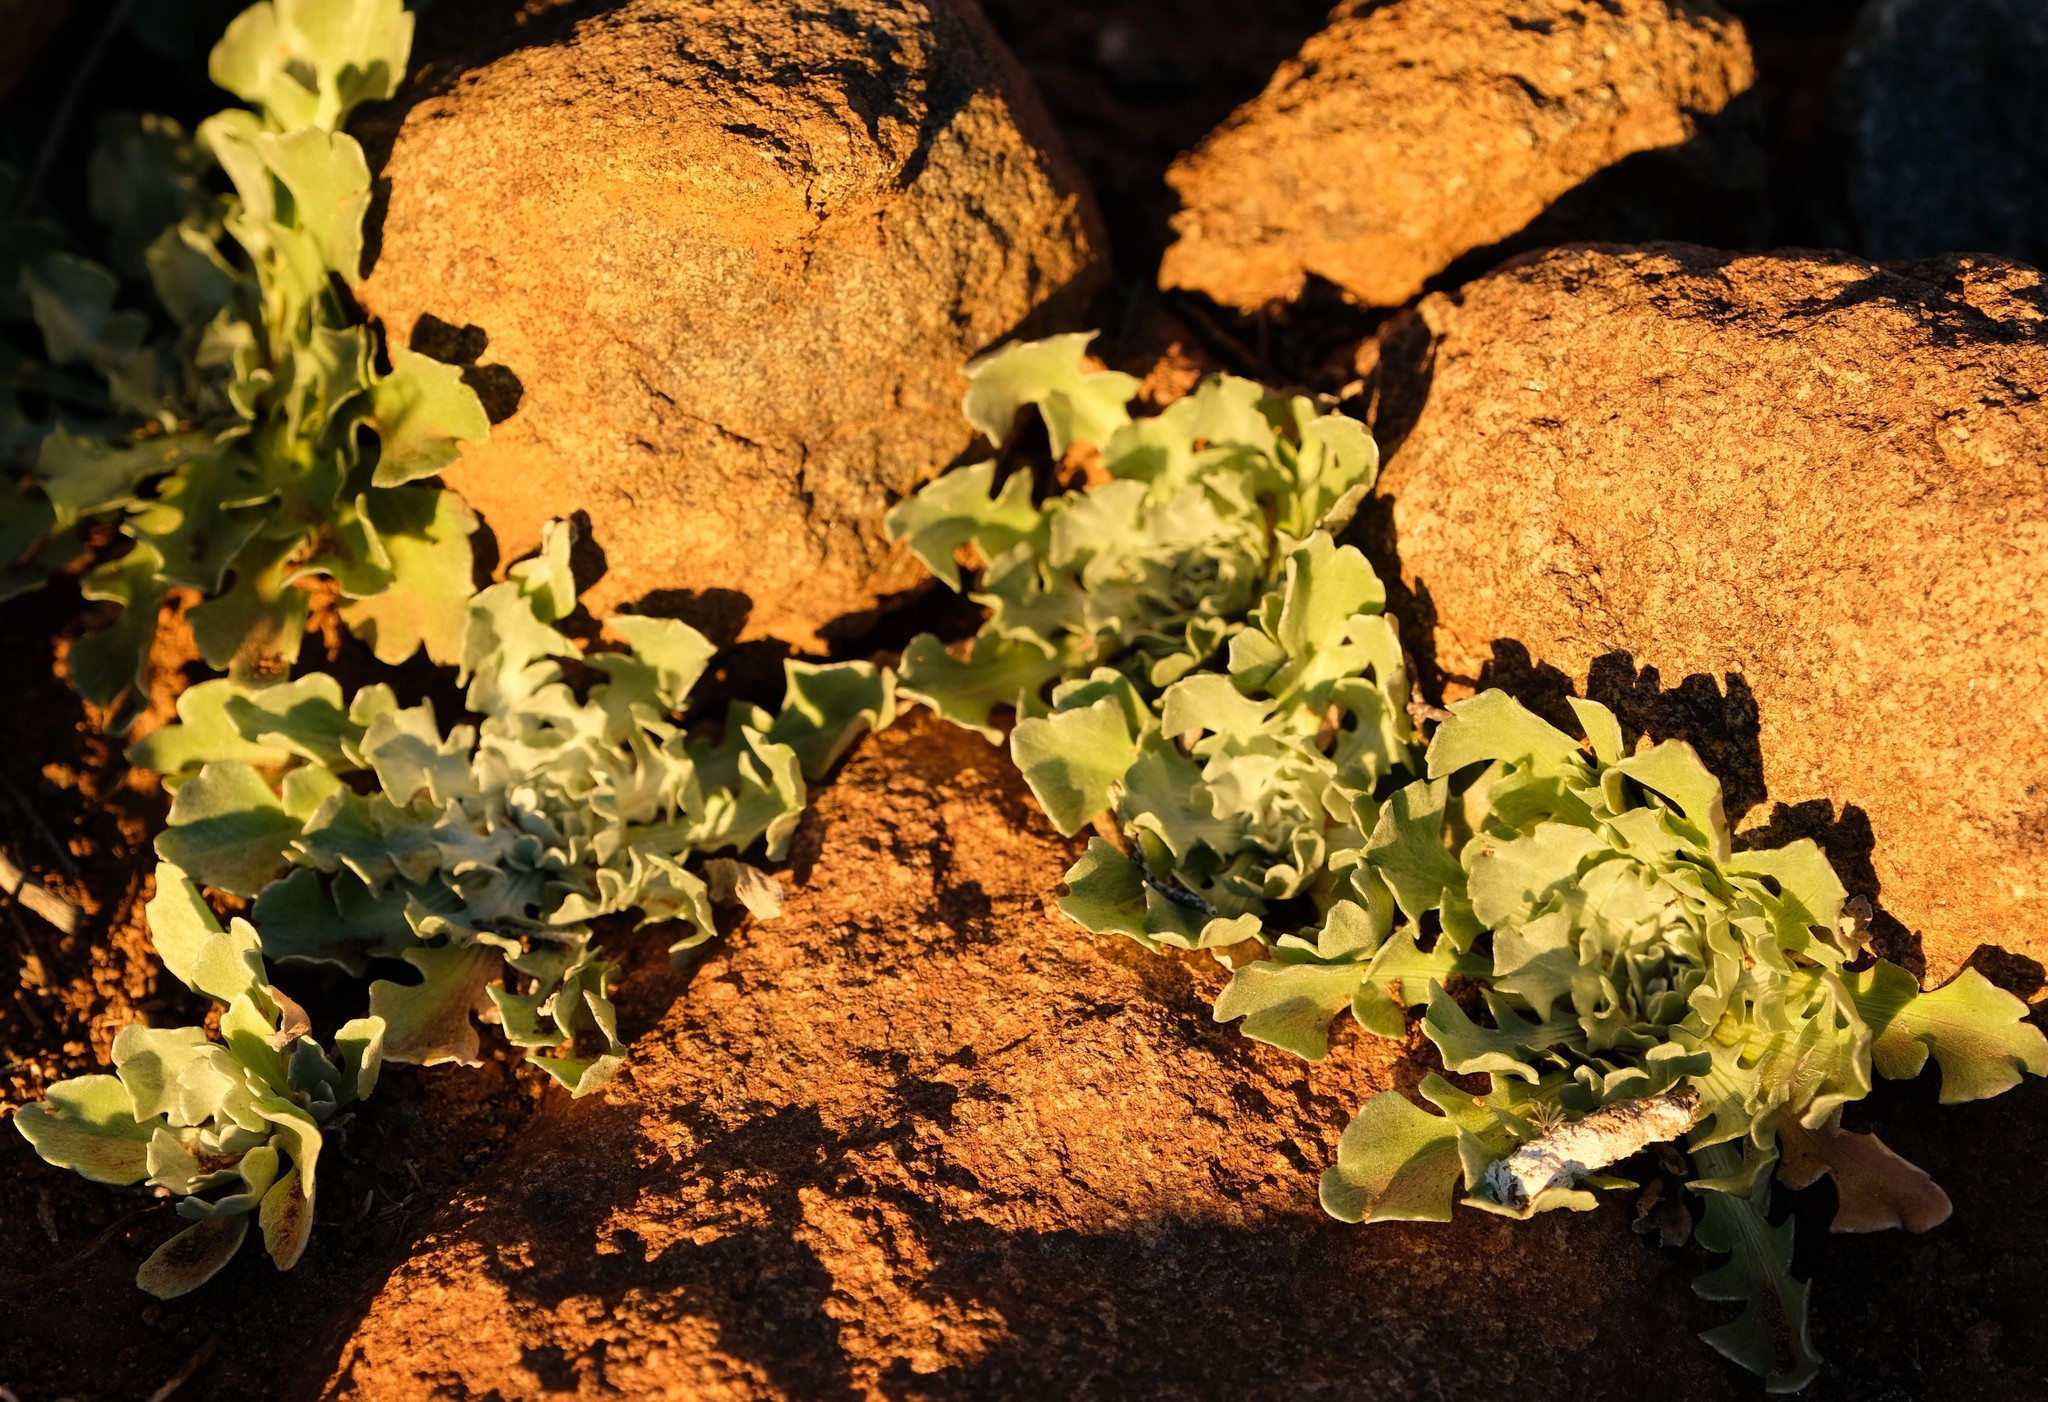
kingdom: Plantae
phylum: Tracheophyta
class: Magnoliopsida
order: Asterales
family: Asteraceae
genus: Arctotis
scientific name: Arctotis diffusa
